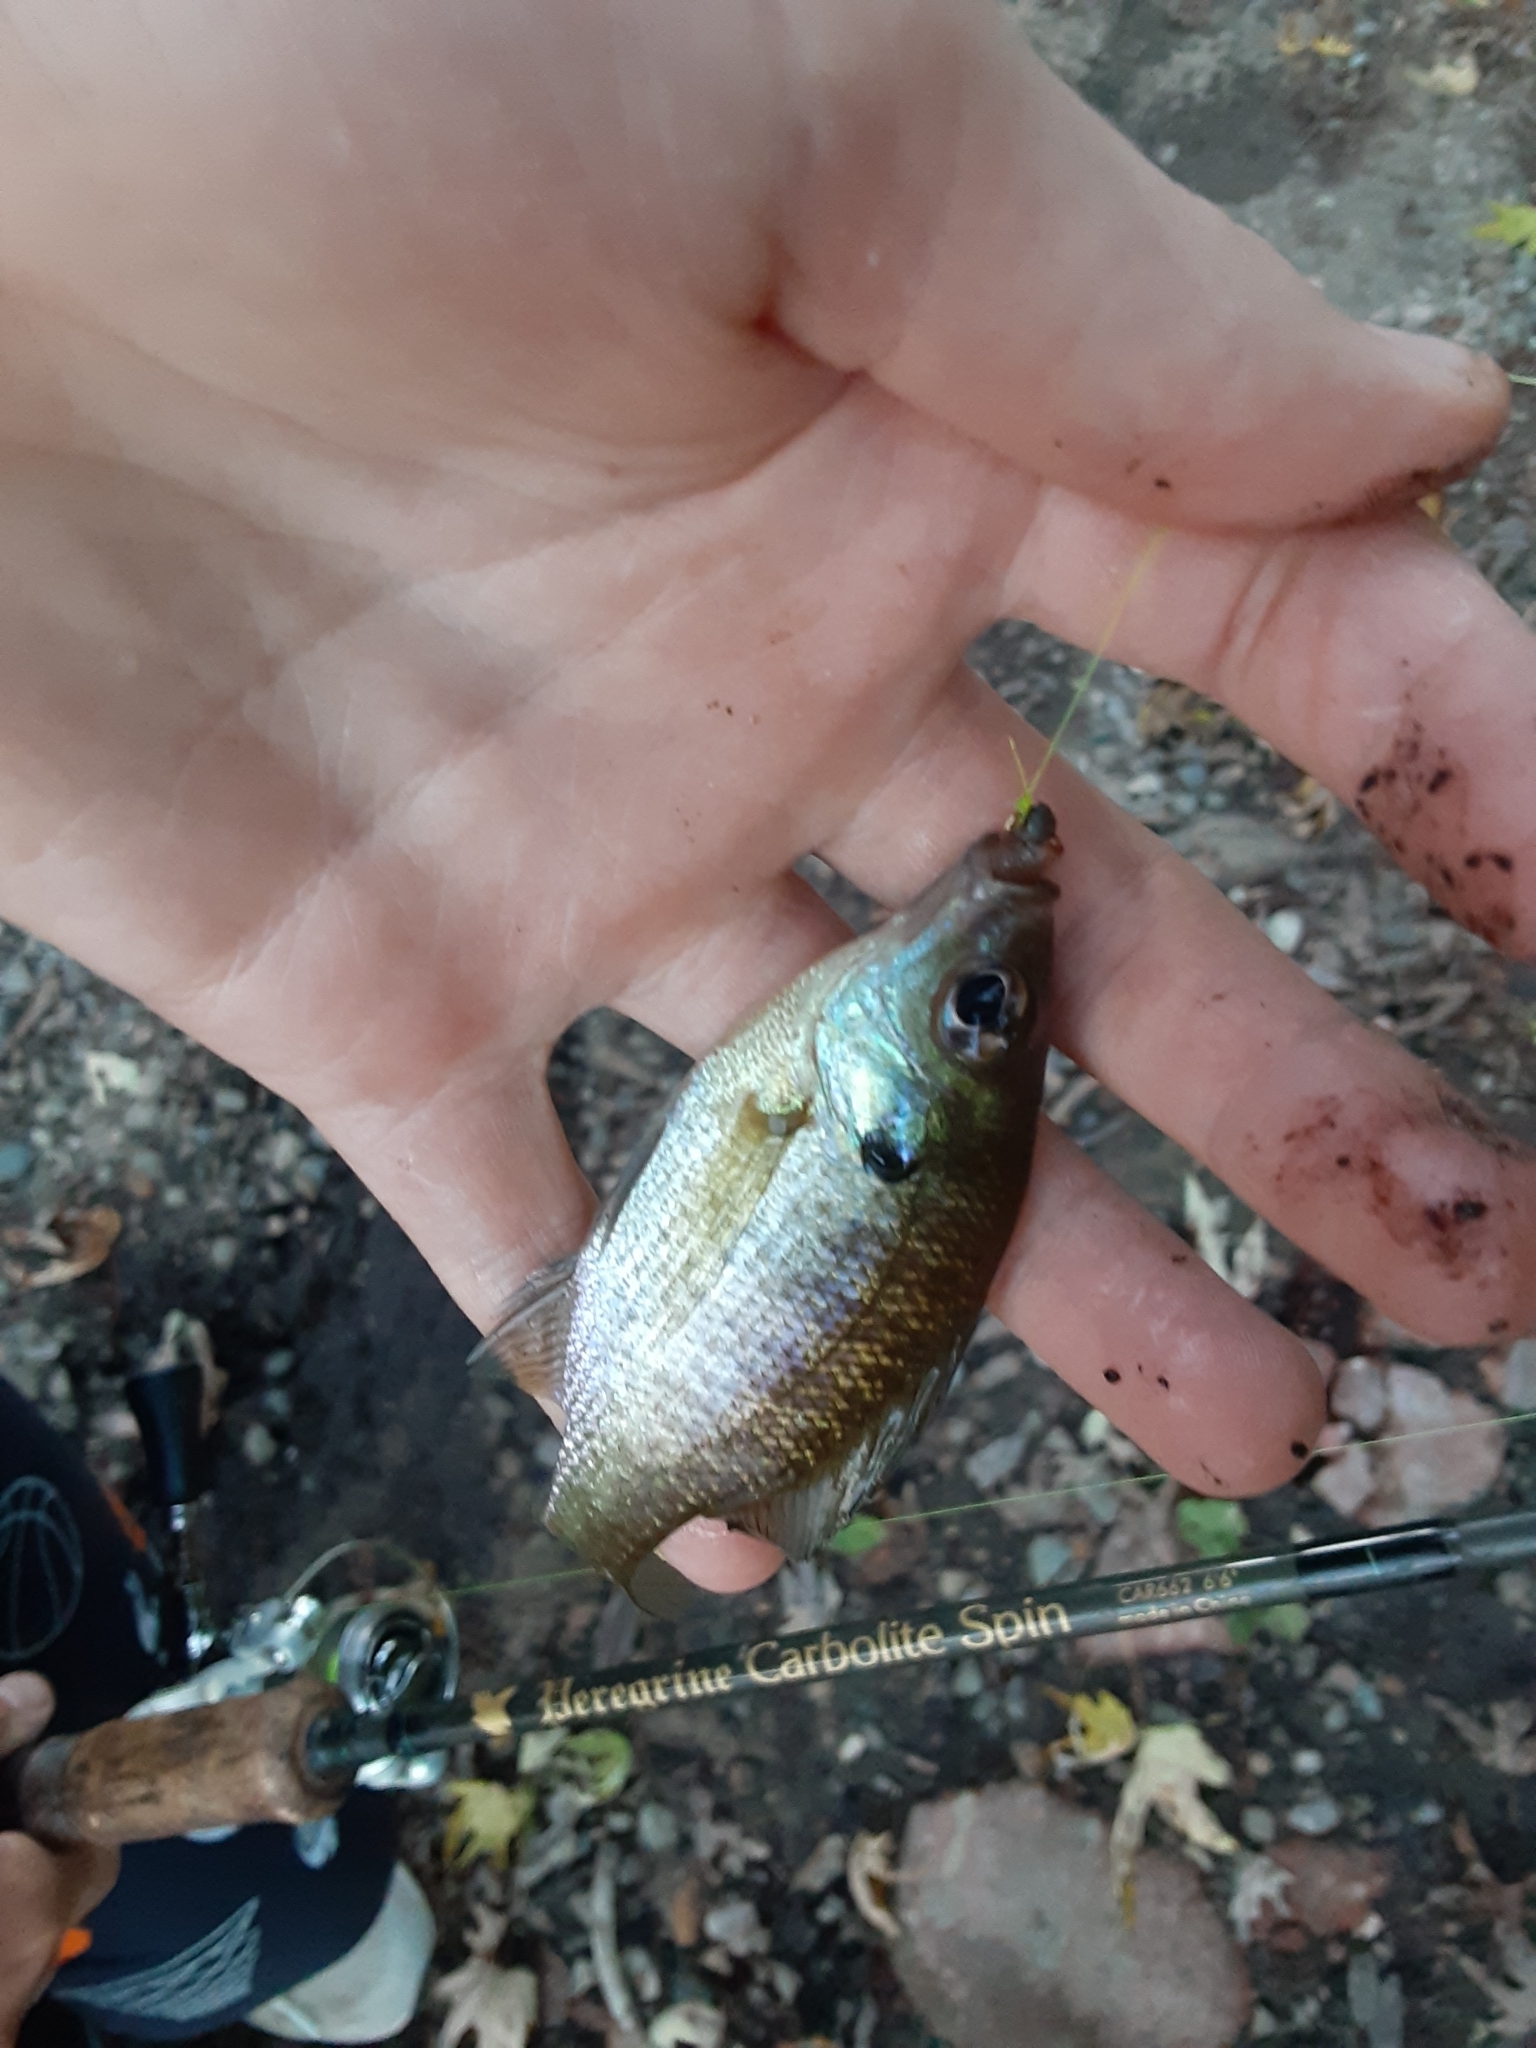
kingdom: Animalia
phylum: Chordata
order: Perciformes
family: Centrarchidae
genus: Lepomis
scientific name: Lepomis macrochirus
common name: Bluegill
